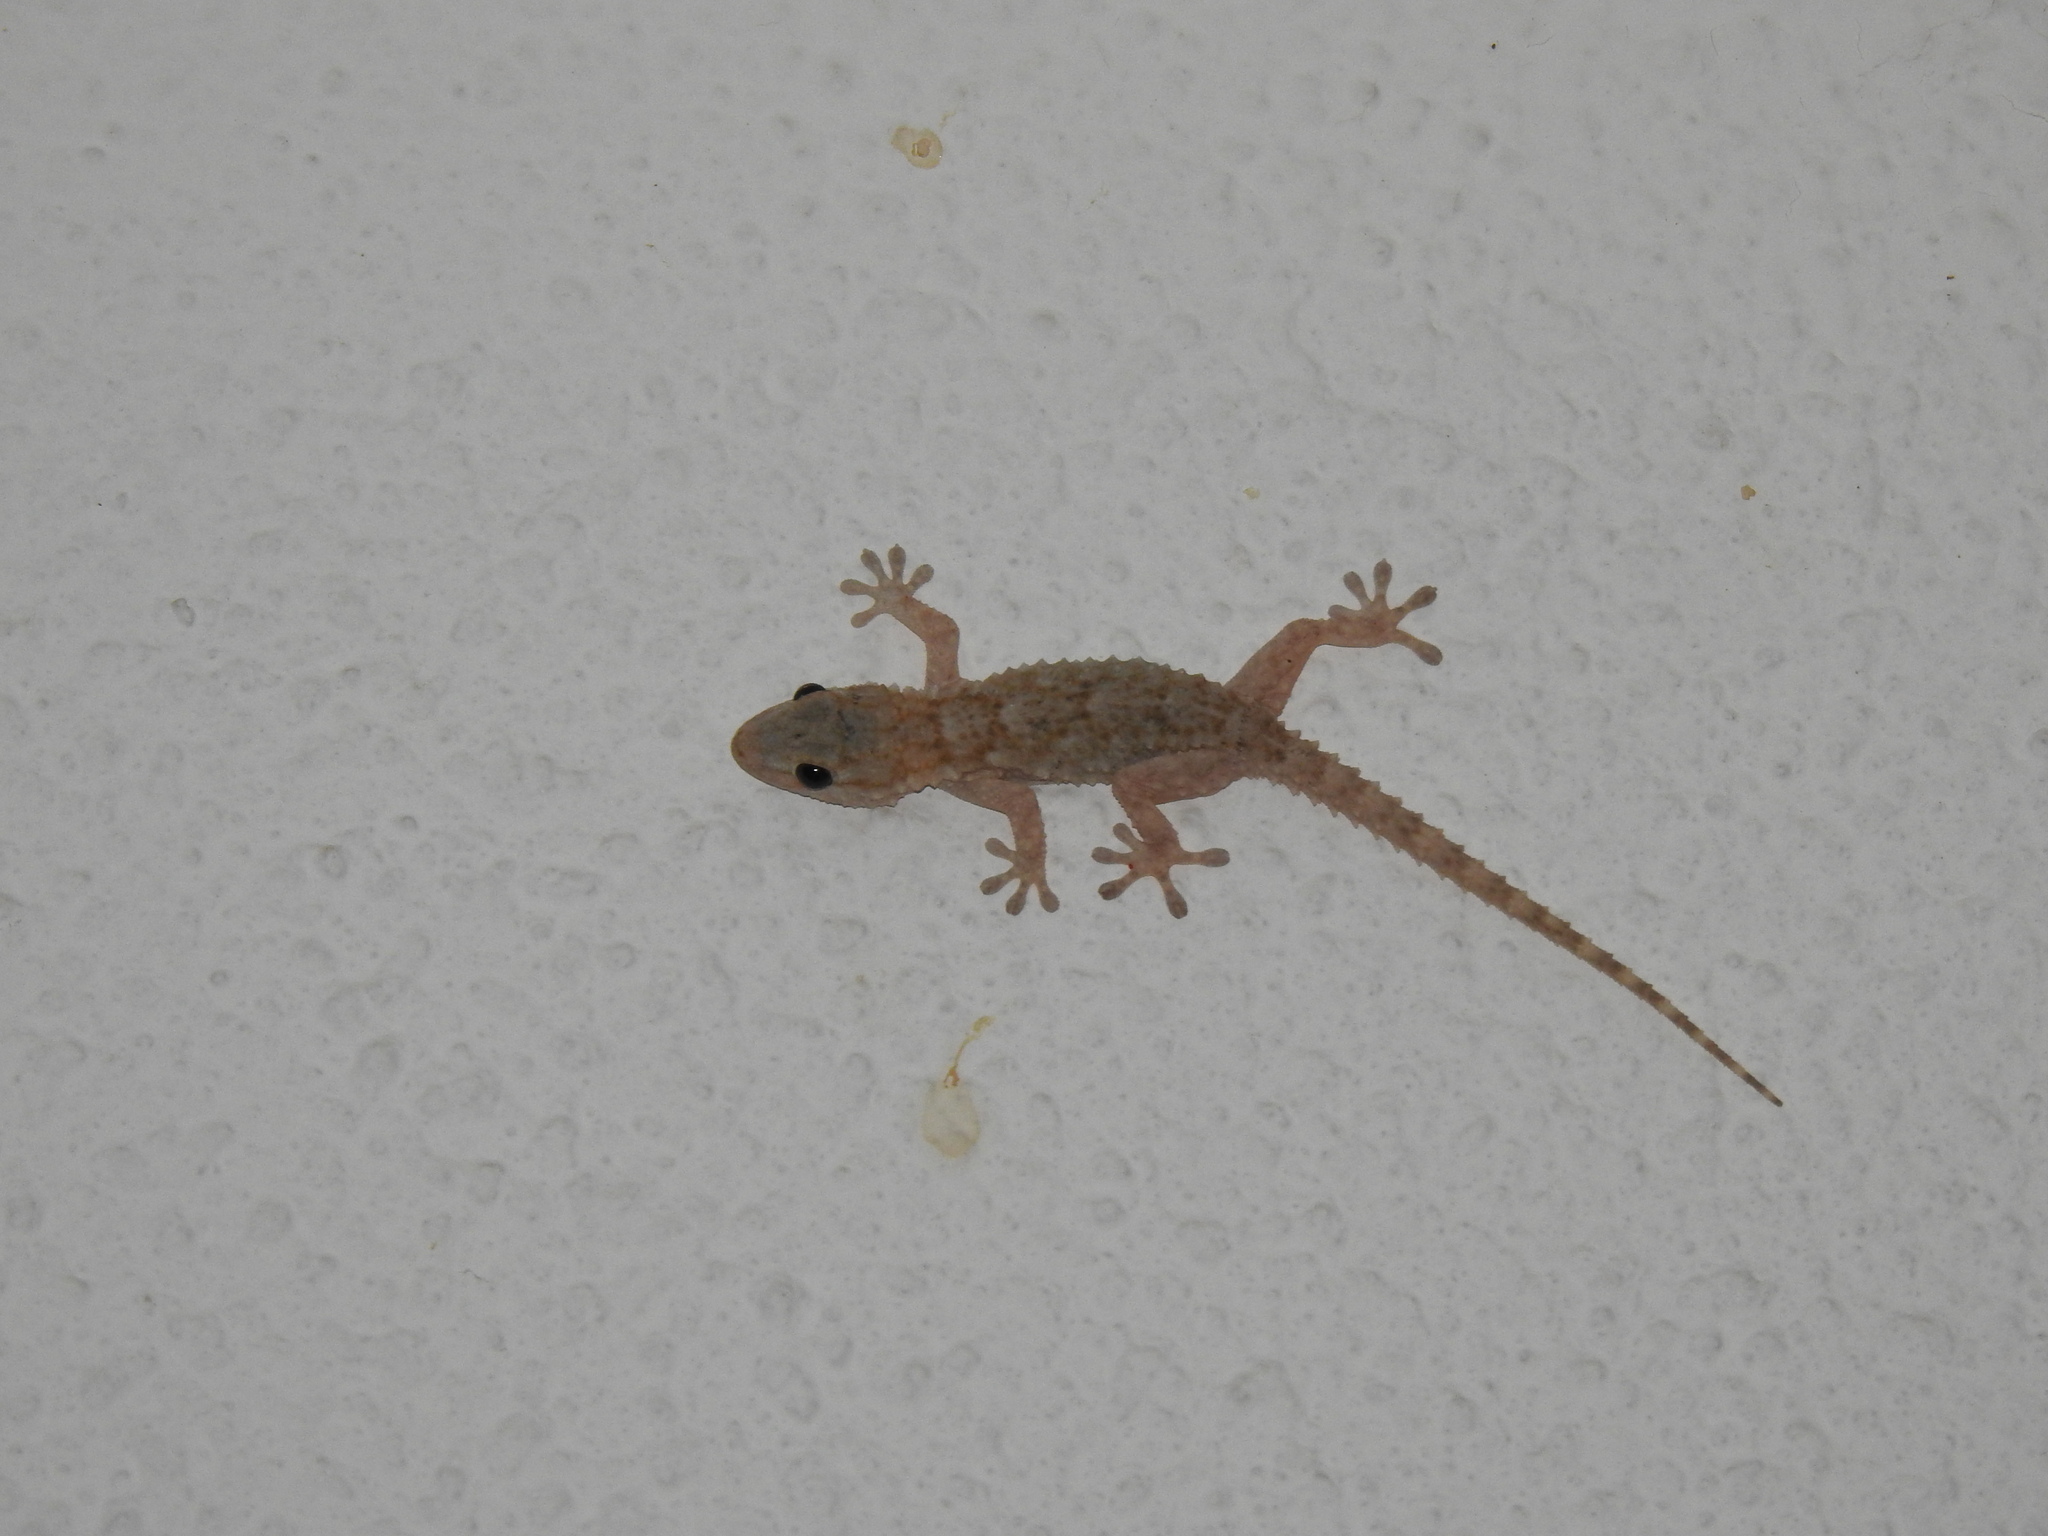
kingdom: Animalia
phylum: Chordata
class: Squamata
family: Phyllodactylidae
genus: Tarentola
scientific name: Tarentola mauritanica
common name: Moorish gecko
